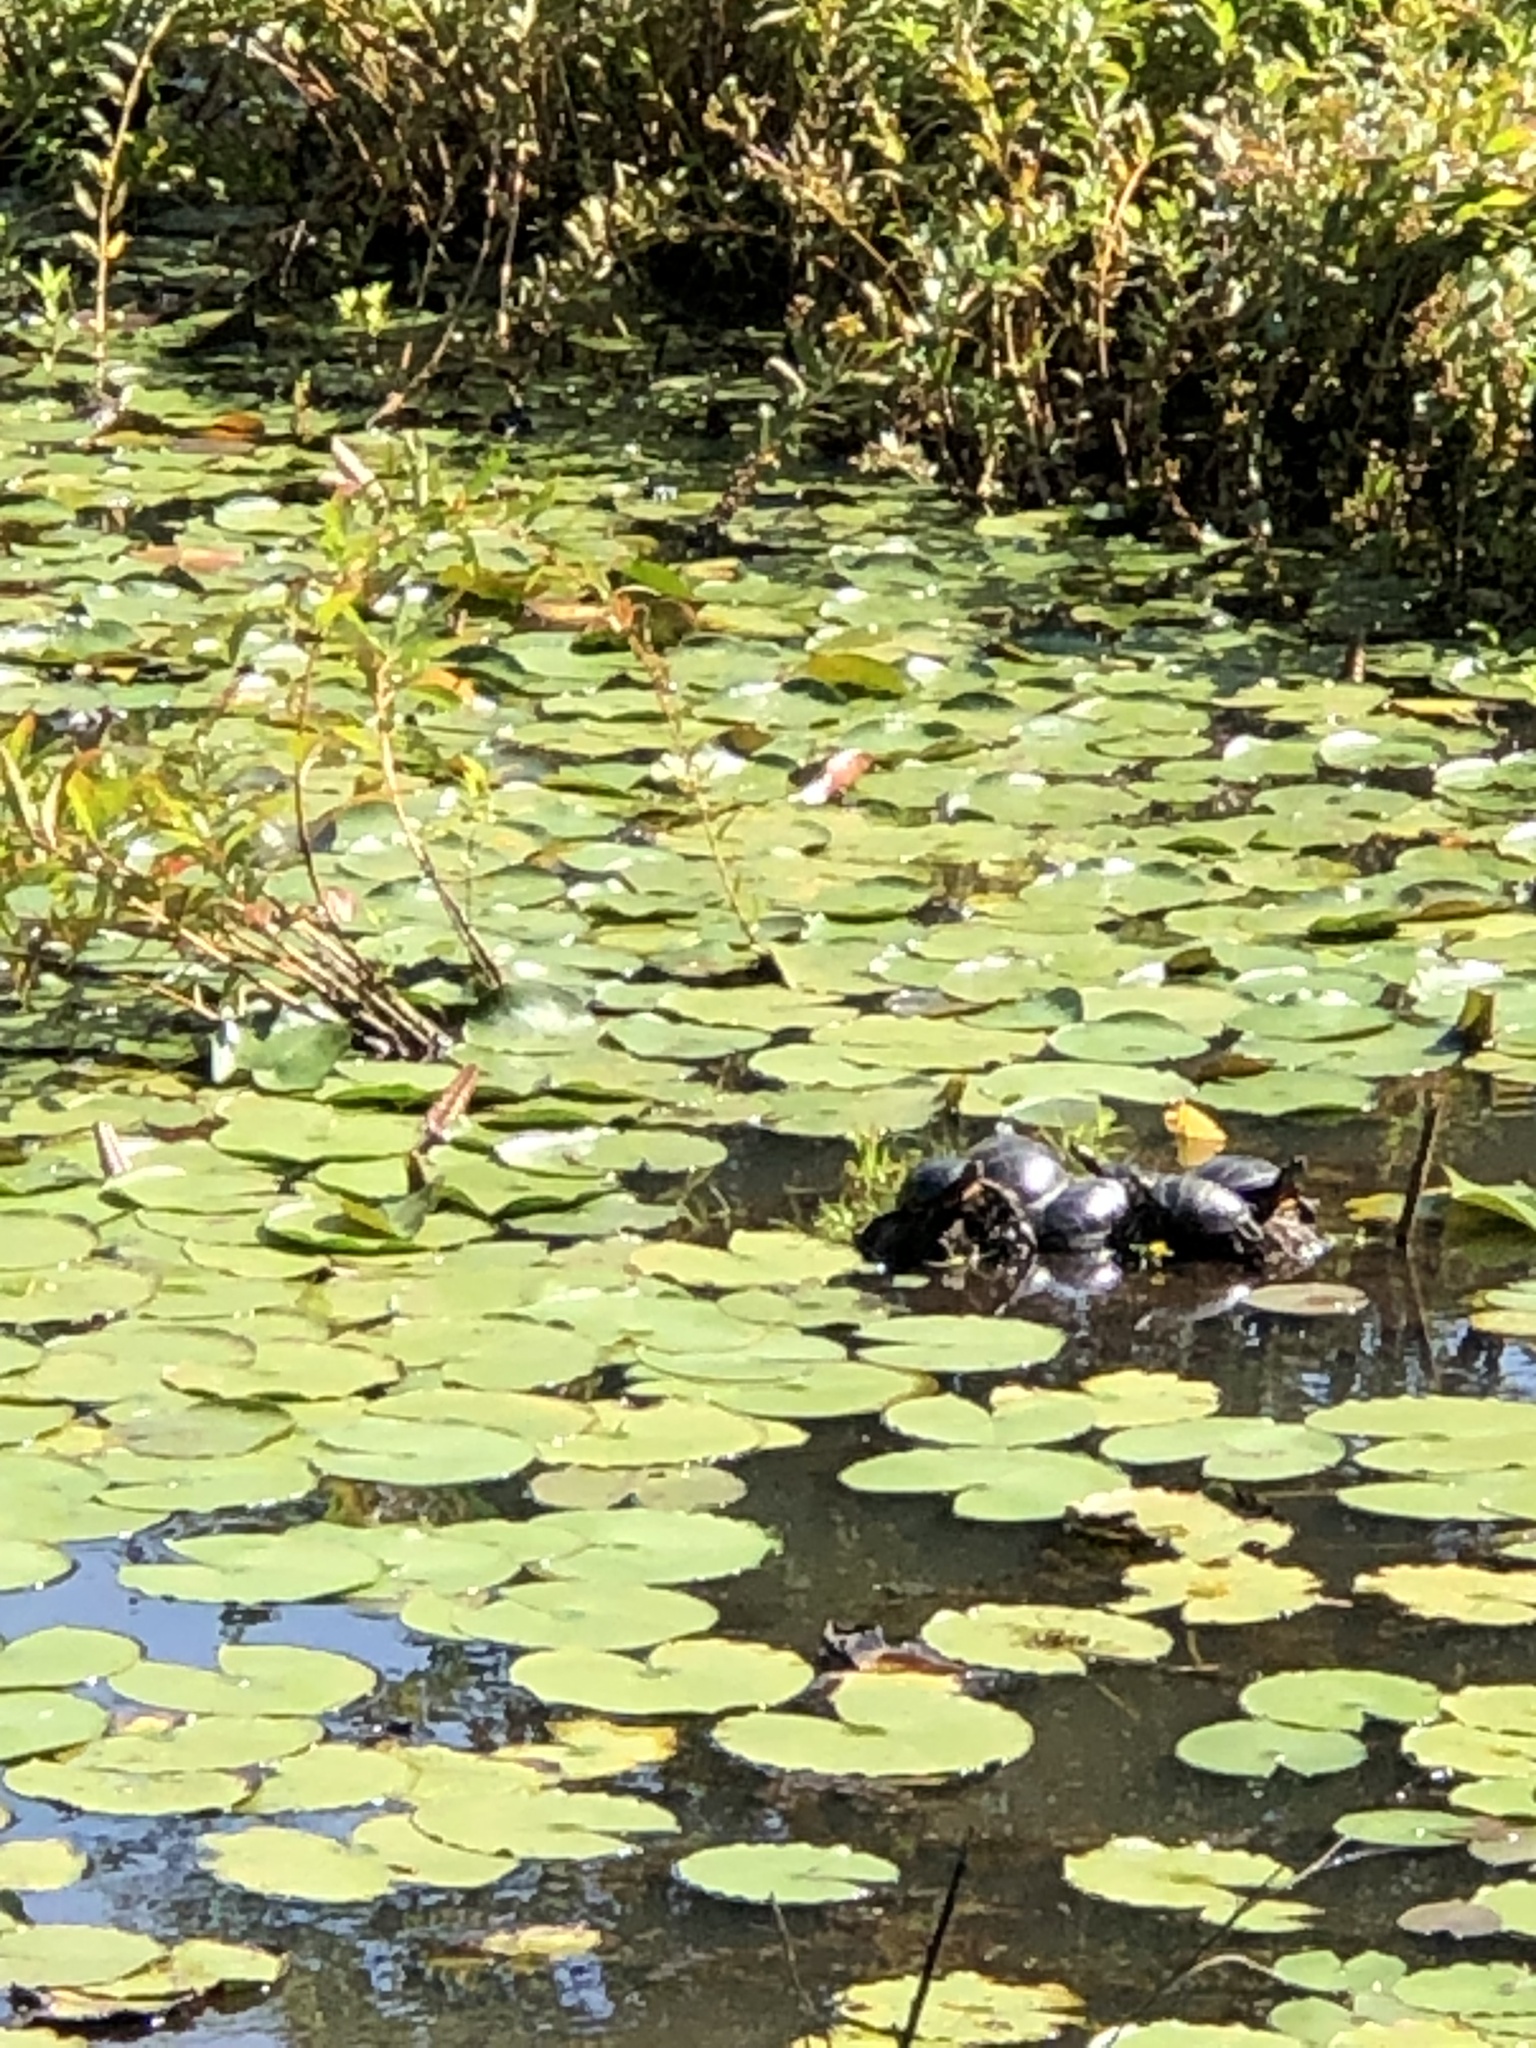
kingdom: Animalia
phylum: Chordata
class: Testudines
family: Emydidae
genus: Chrysemys
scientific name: Chrysemys picta
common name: Painted turtle
